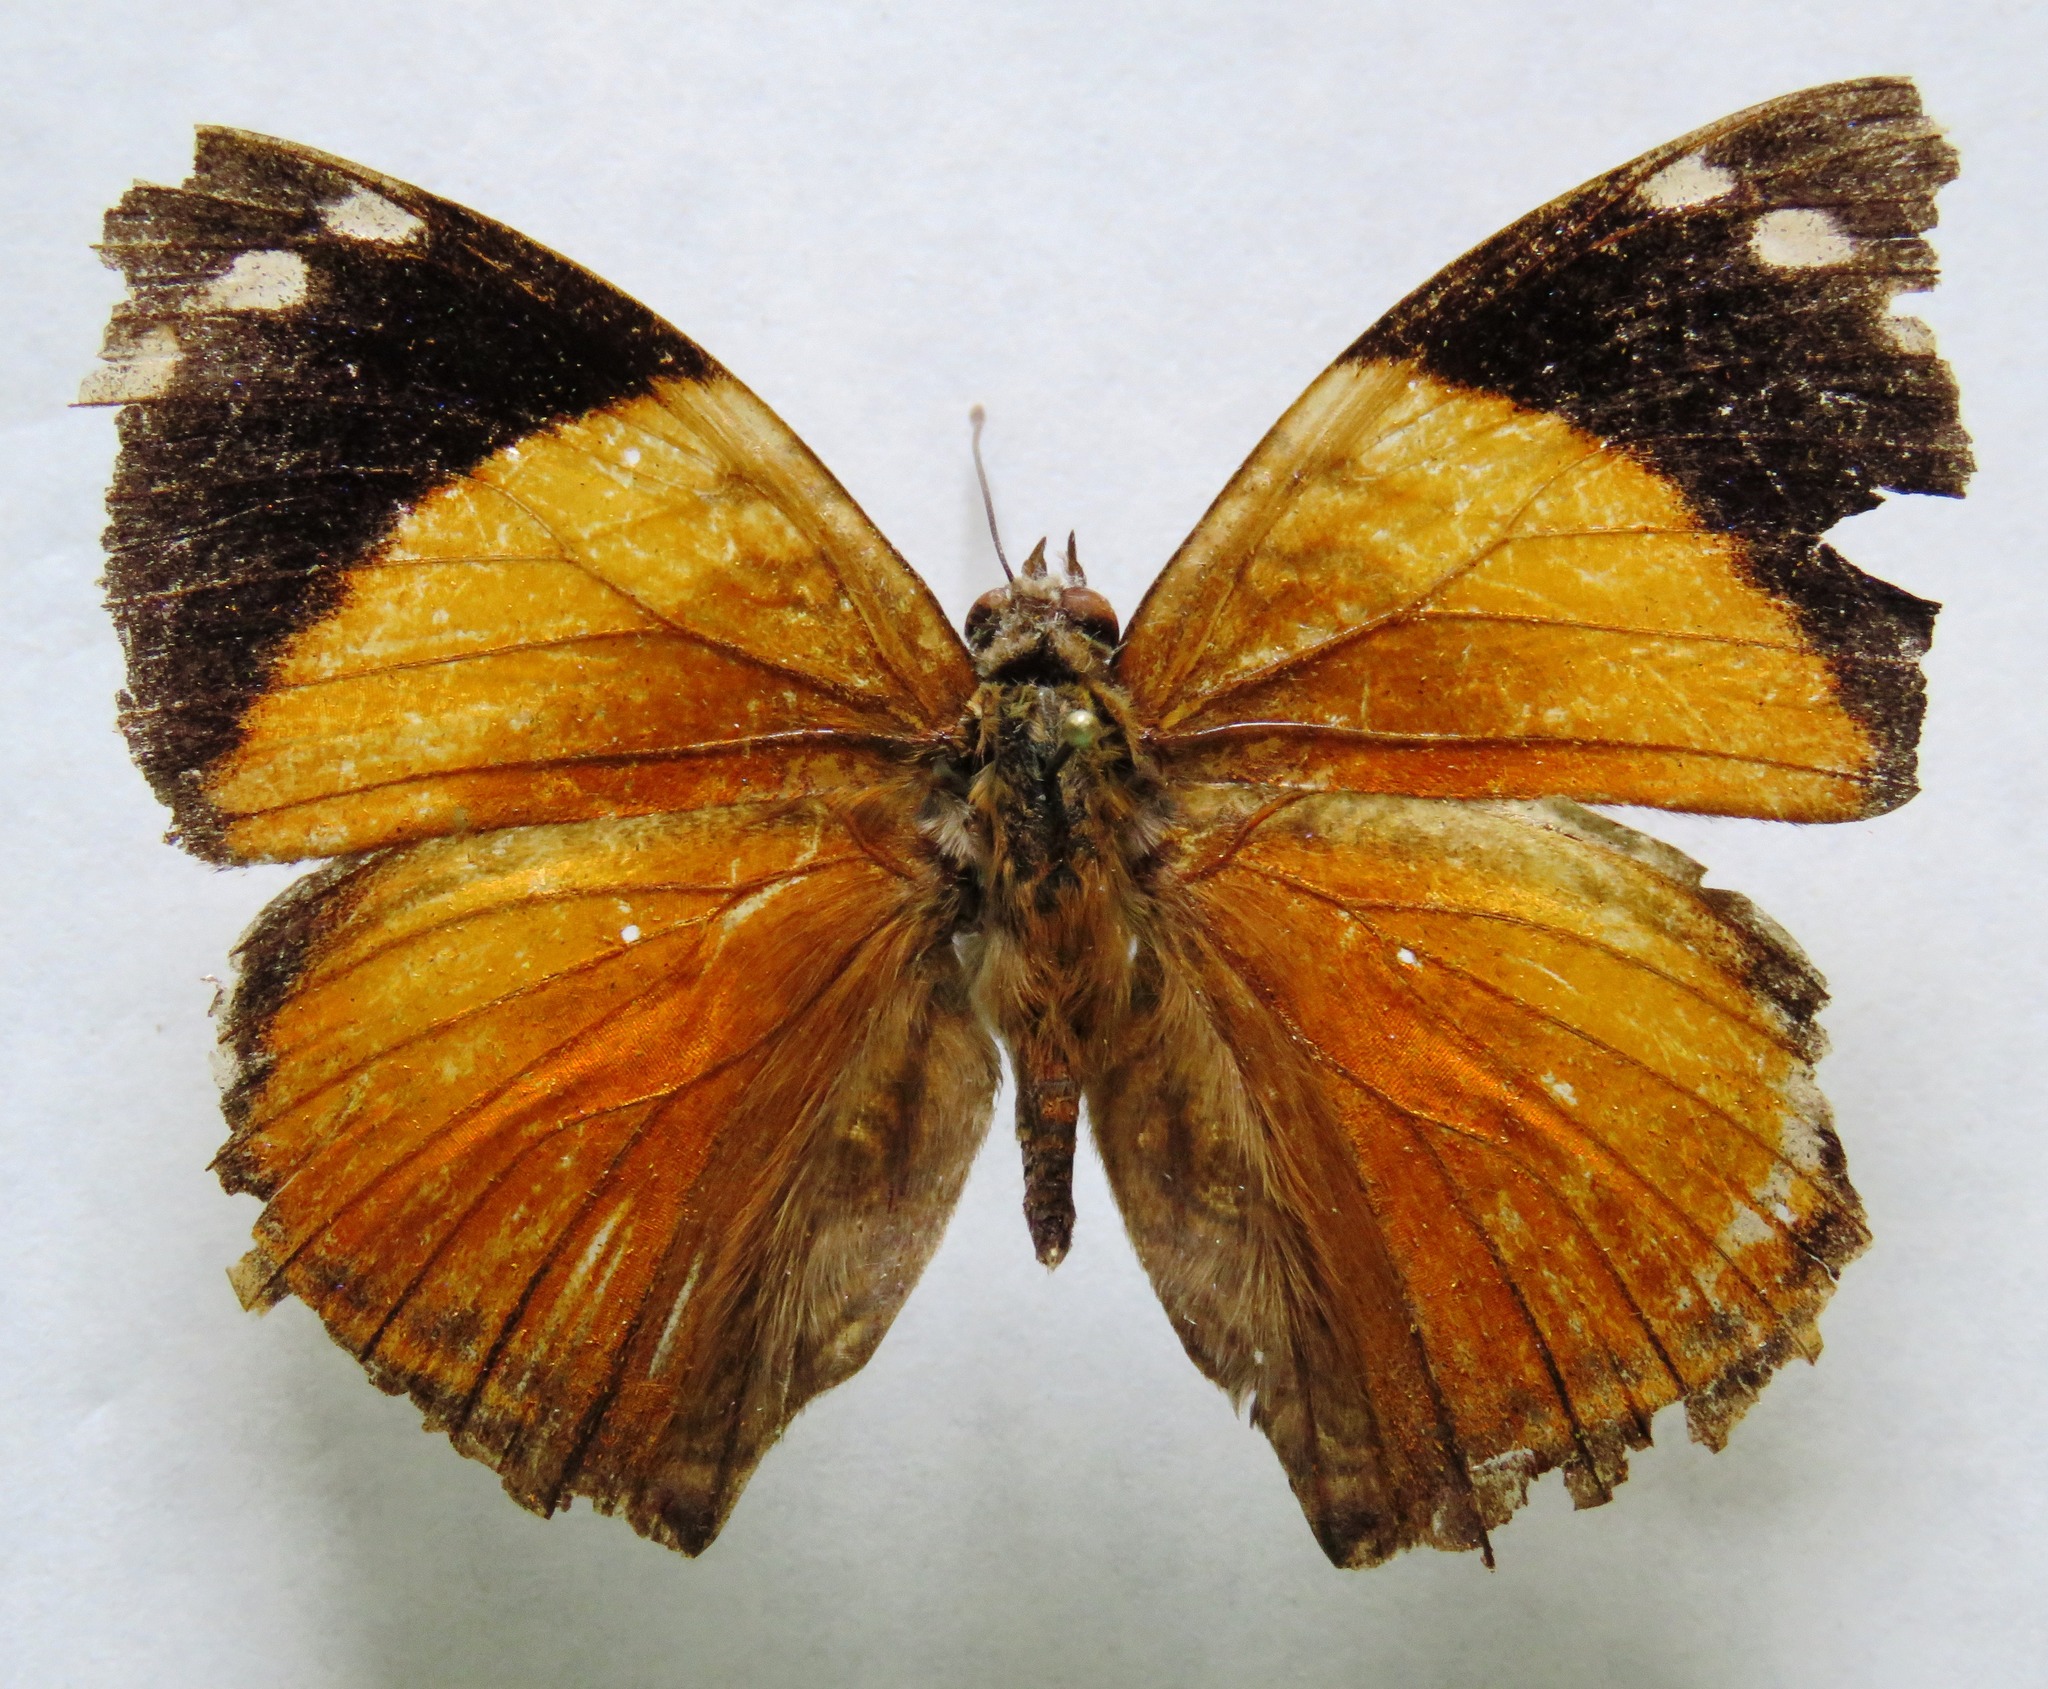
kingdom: Animalia
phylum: Arthropoda
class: Insecta
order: Lepidoptera
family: Nymphalidae
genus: Smyrna
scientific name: Smyrna blomfildia
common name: Blomfild's beauty
